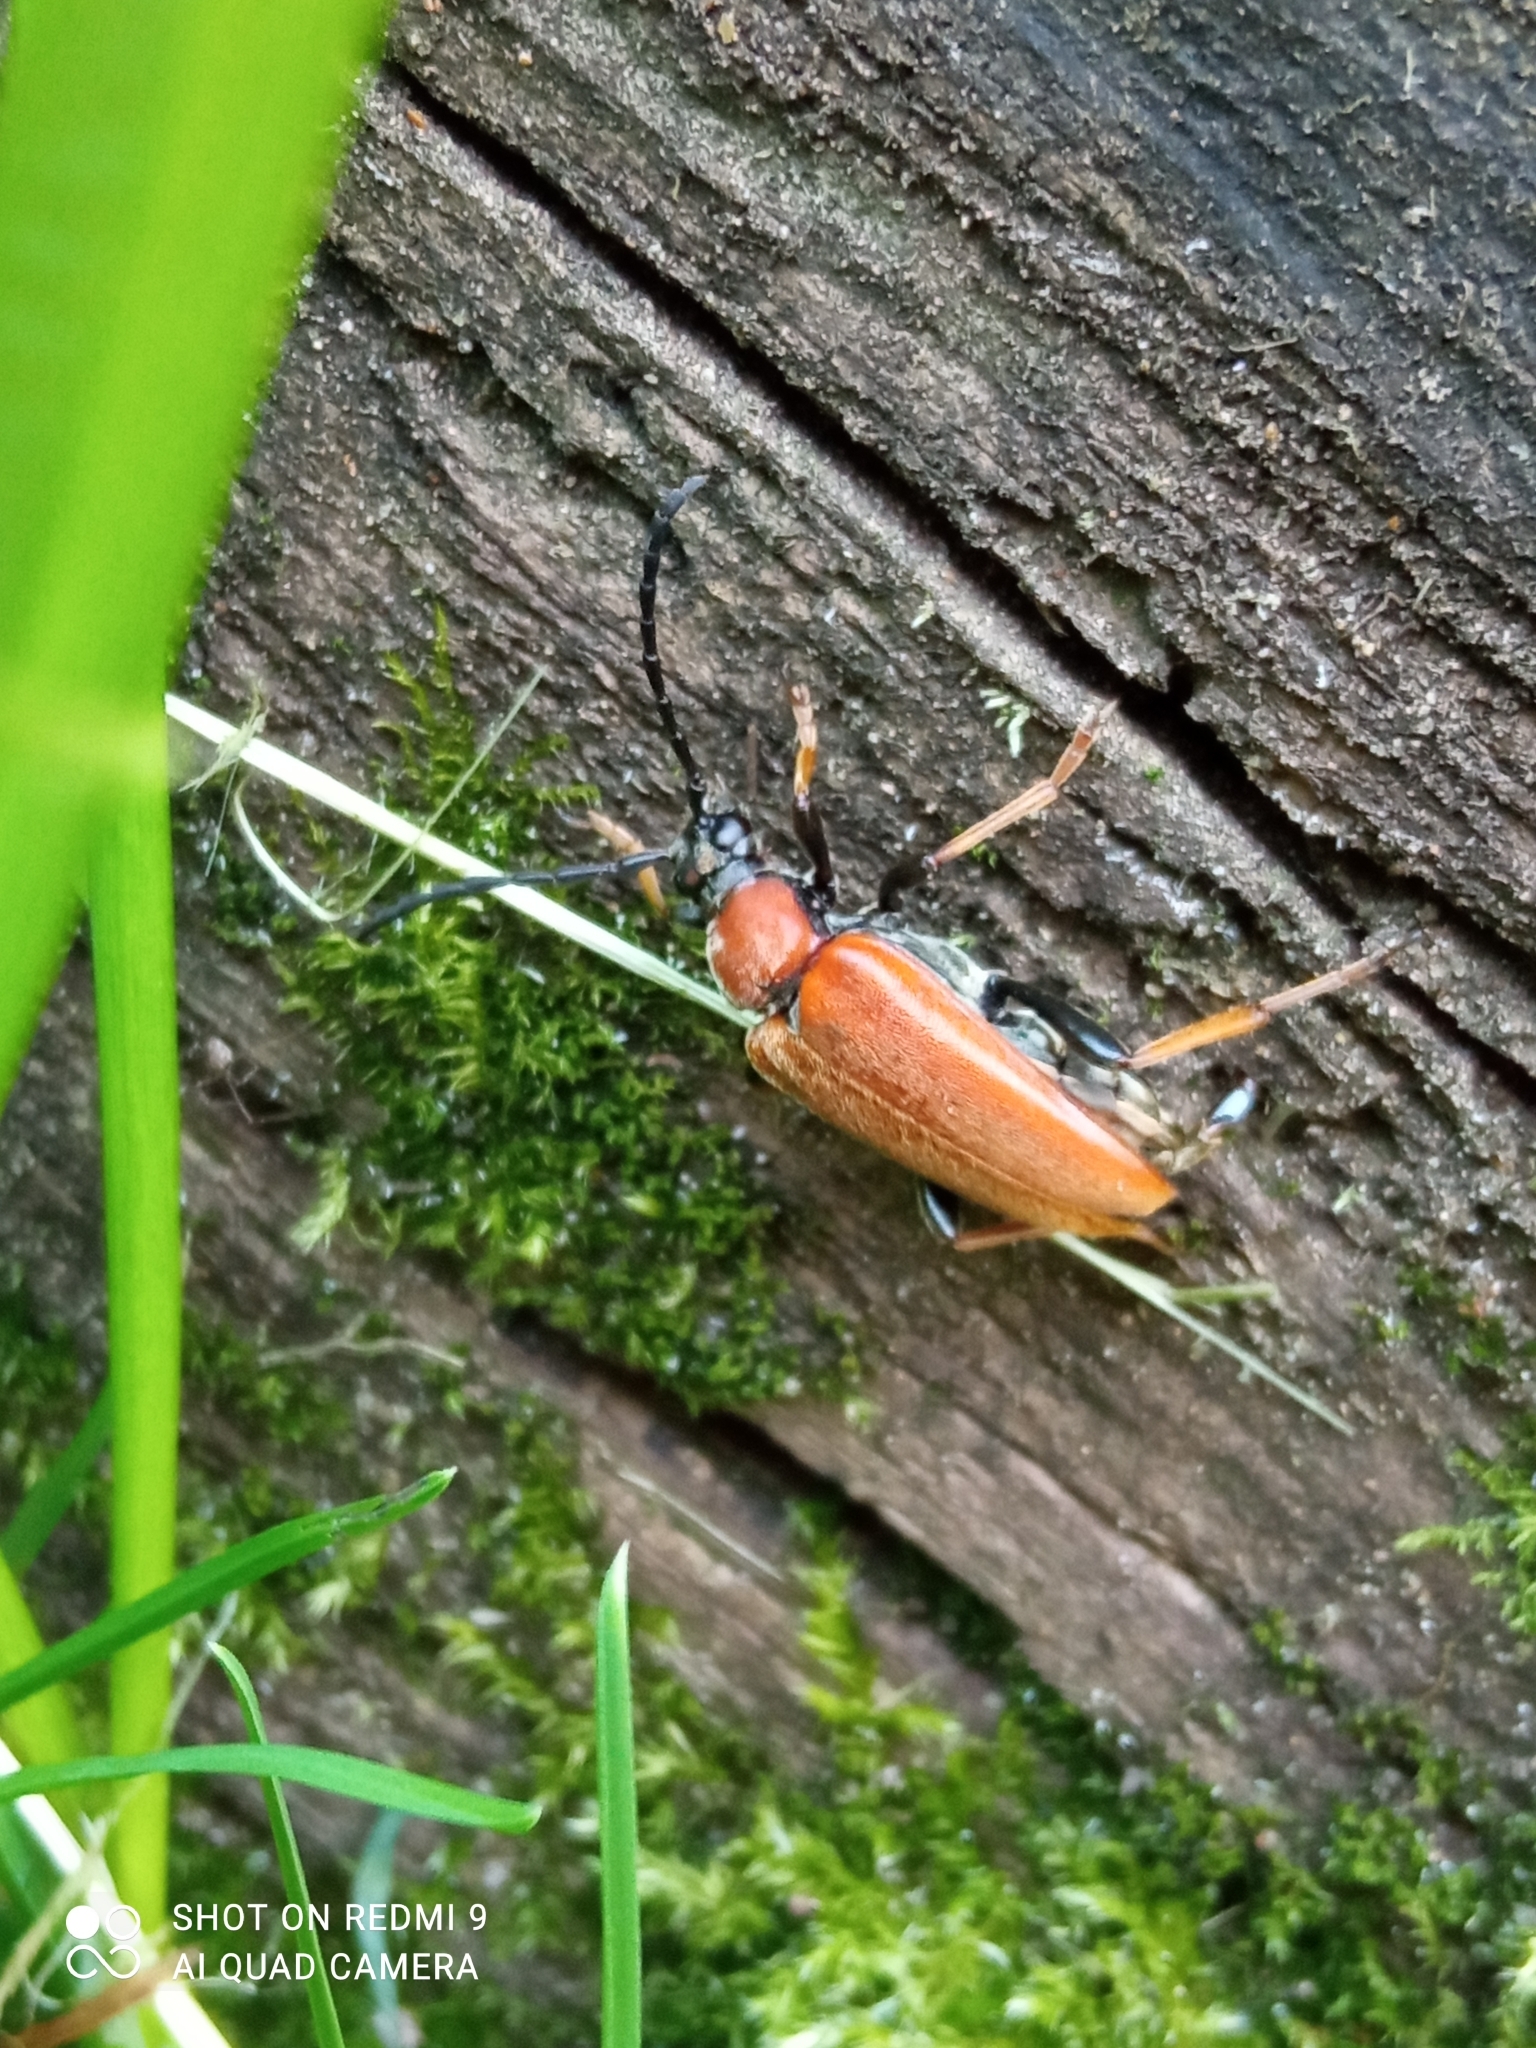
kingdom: Animalia
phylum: Arthropoda
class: Insecta
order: Coleoptera
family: Cerambycidae
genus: Stictoleptura
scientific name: Stictoleptura rubra
